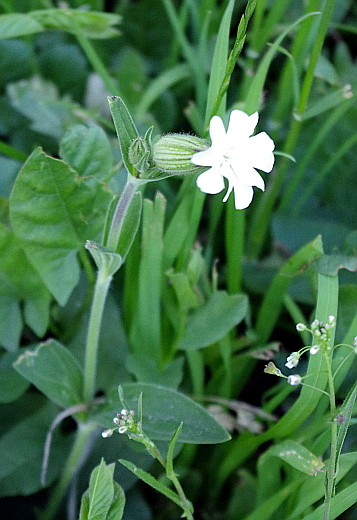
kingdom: Plantae
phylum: Tracheophyta
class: Magnoliopsida
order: Caryophyllales
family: Caryophyllaceae
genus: Silene
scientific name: Silene latifolia
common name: White campion
